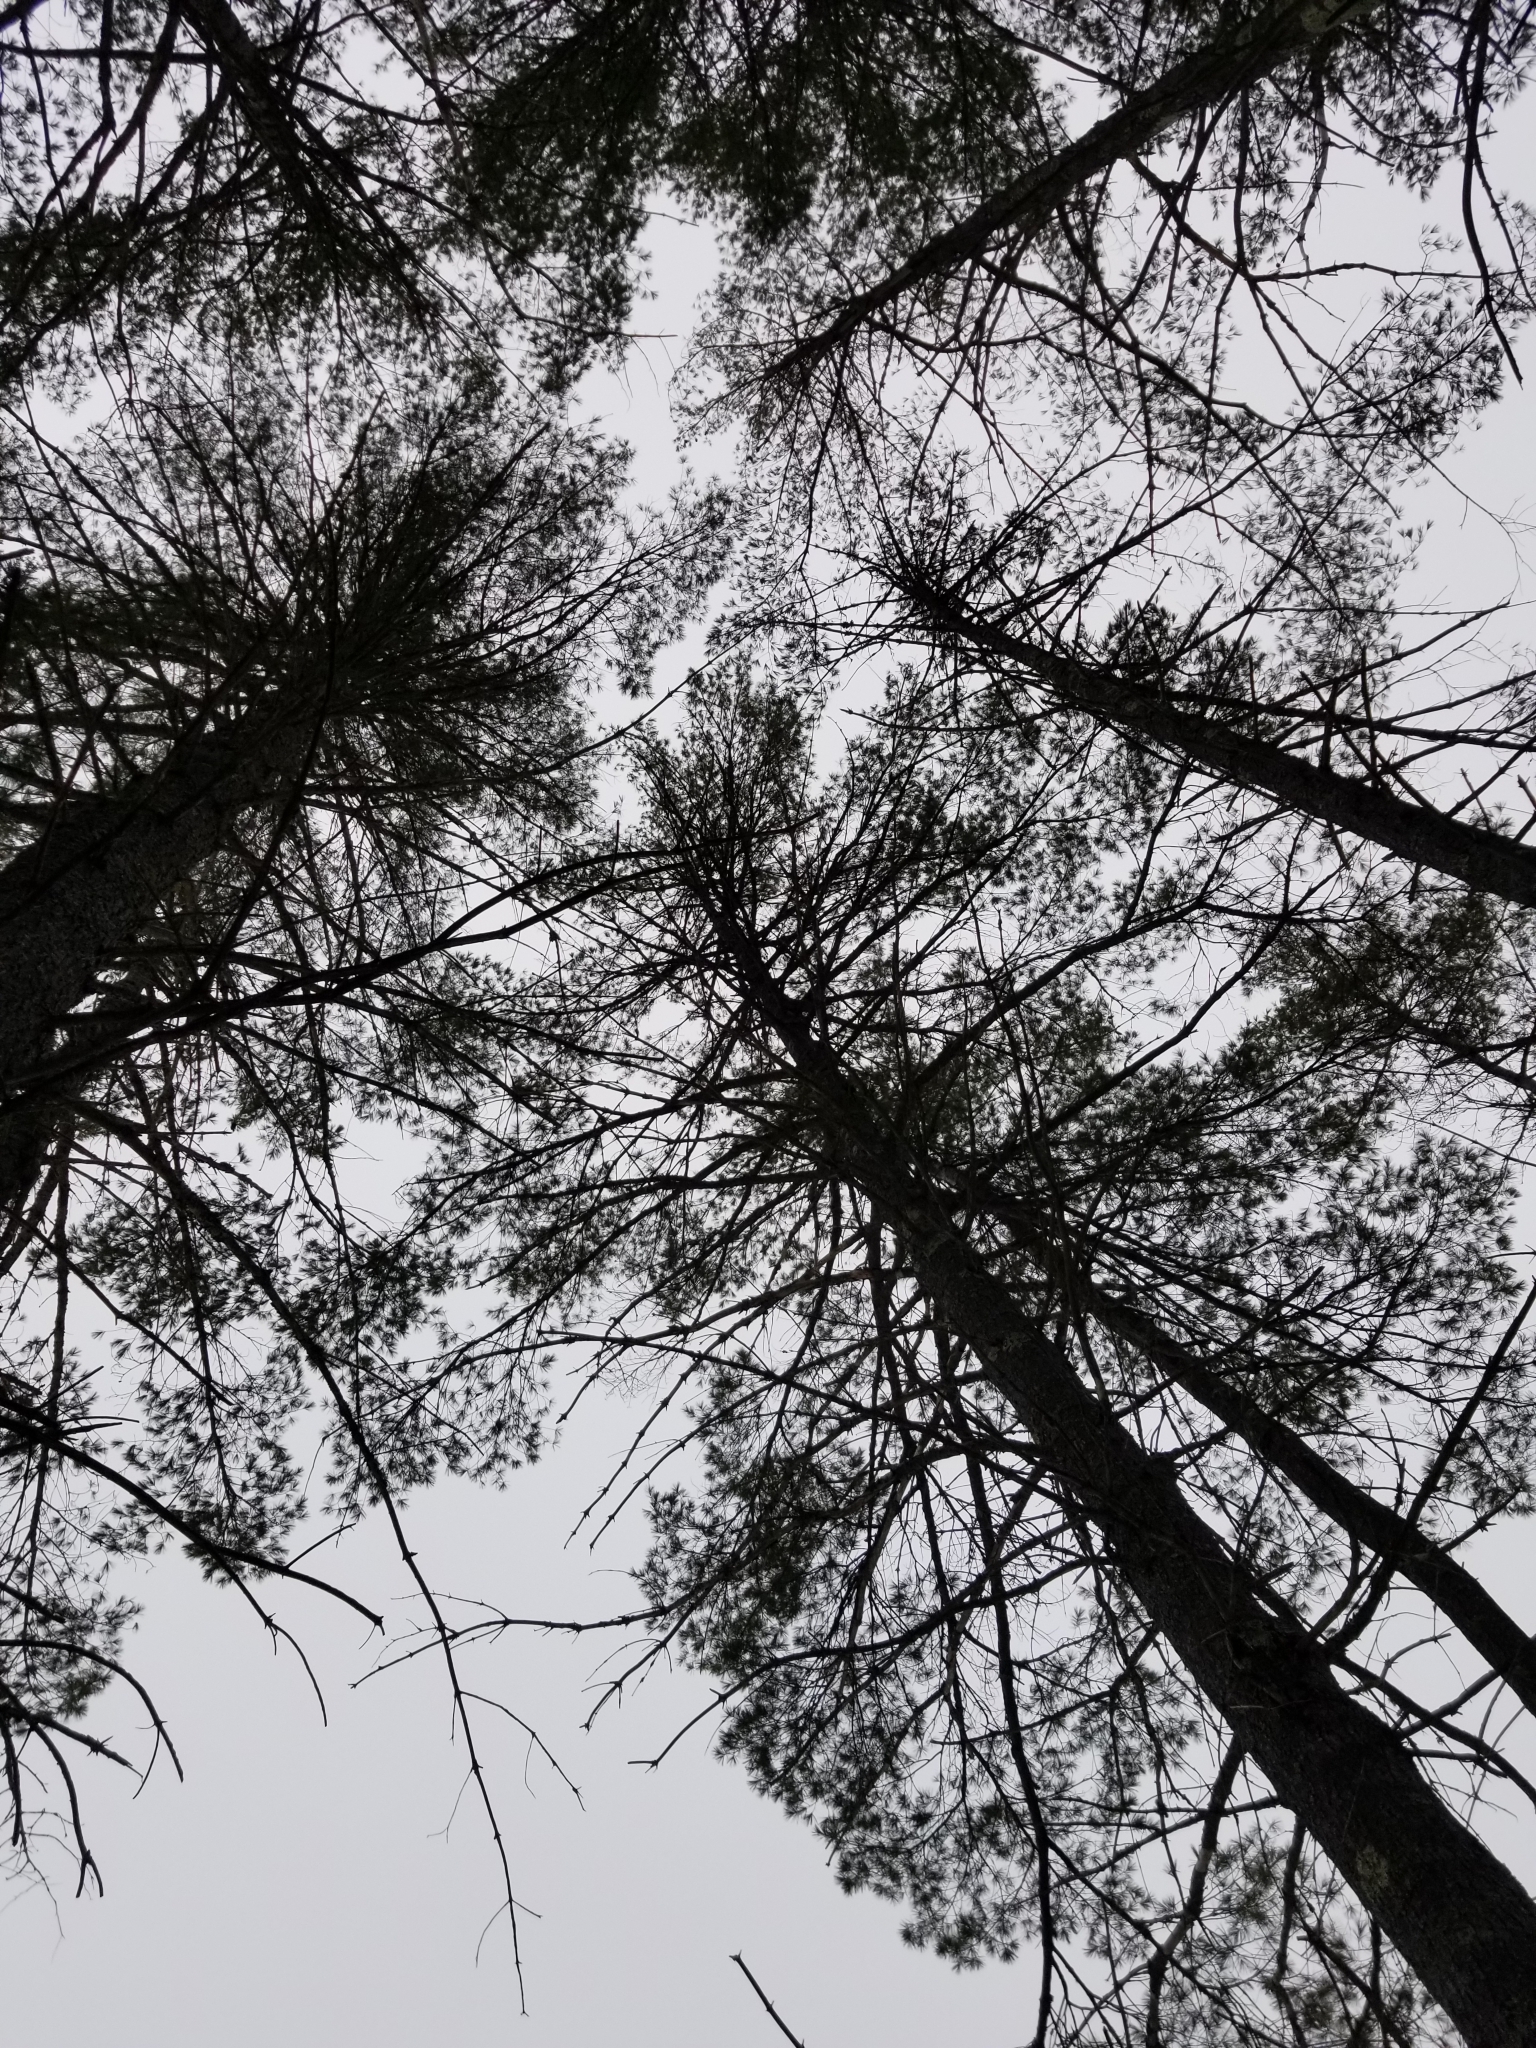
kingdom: Plantae
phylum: Tracheophyta
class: Pinopsida
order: Pinales
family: Pinaceae
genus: Pinus
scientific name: Pinus strobus
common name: Weymouth pine
